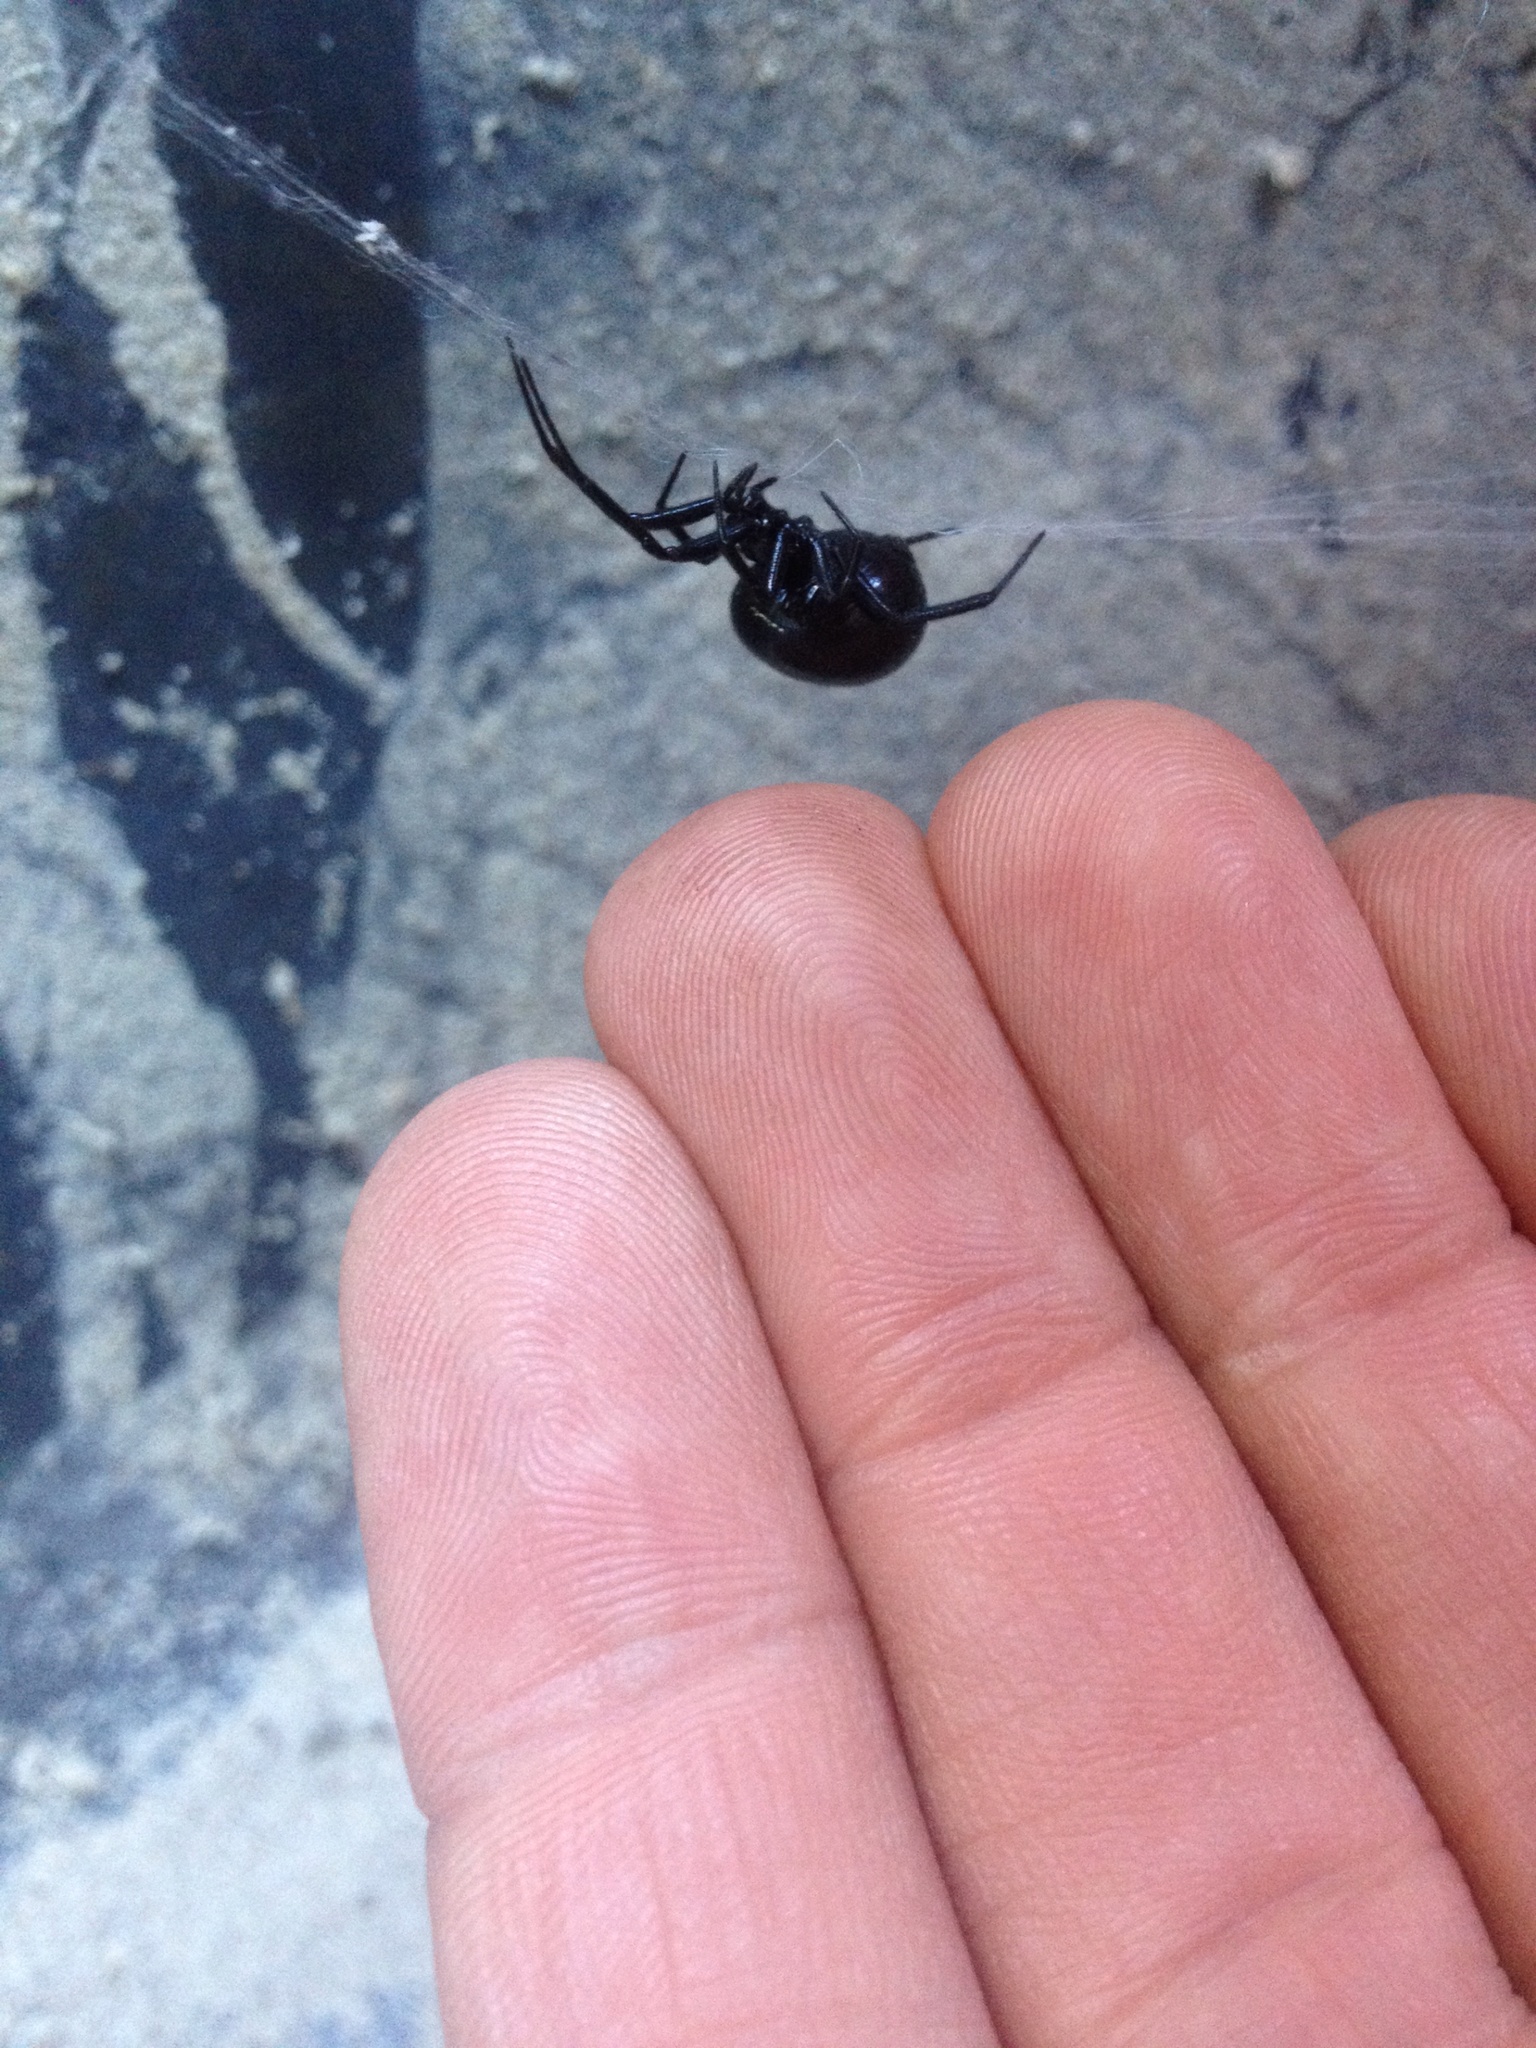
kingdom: Animalia
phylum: Arthropoda
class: Arachnida
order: Araneae
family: Theridiidae
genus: Steatoda
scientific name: Steatoda capensis
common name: Cobweb weaver
